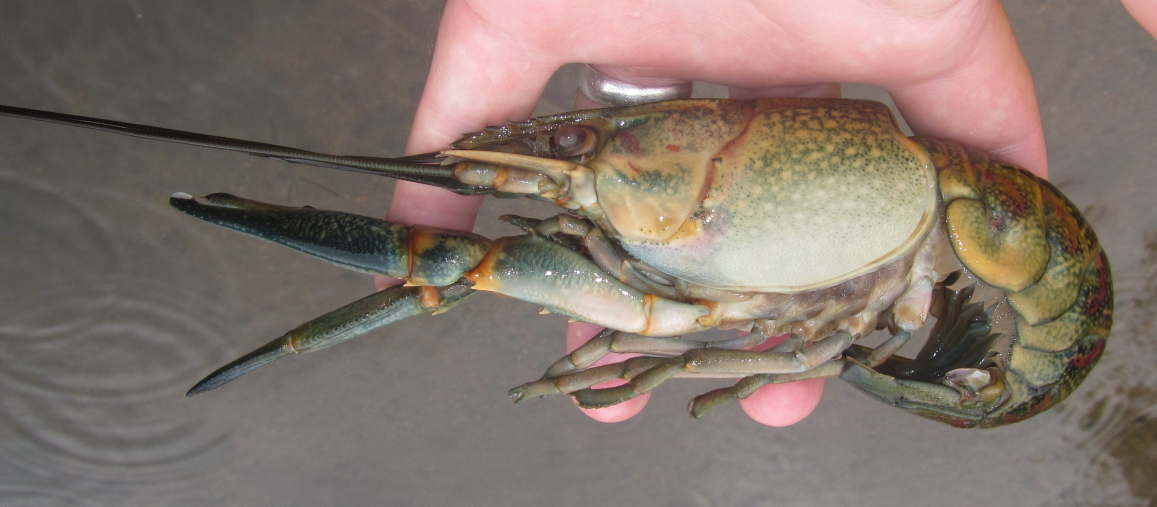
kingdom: Animalia
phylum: Arthropoda
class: Malacostraca
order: Decapoda
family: Parastacidae
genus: Cherax
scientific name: Cherax quadricarinatus
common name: Redclaw
